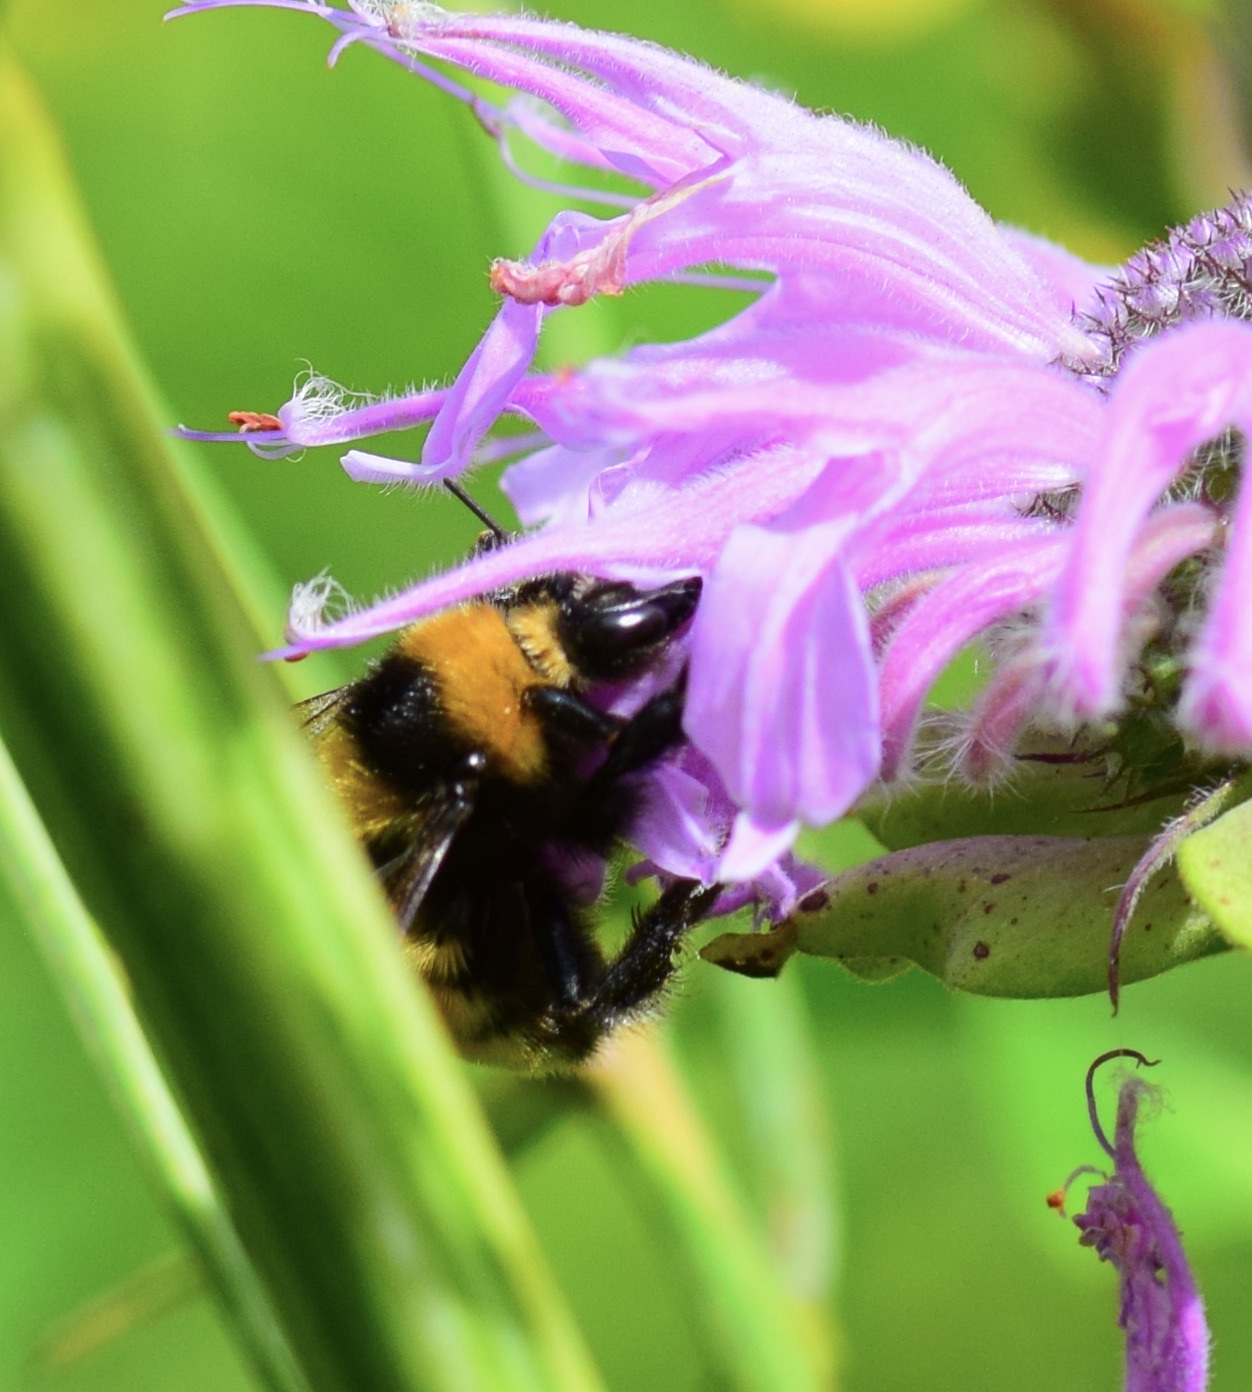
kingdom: Animalia
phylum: Arthropoda
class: Insecta
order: Hymenoptera
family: Apidae
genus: Bombus
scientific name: Bombus borealis
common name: Northern amber bumble bee
